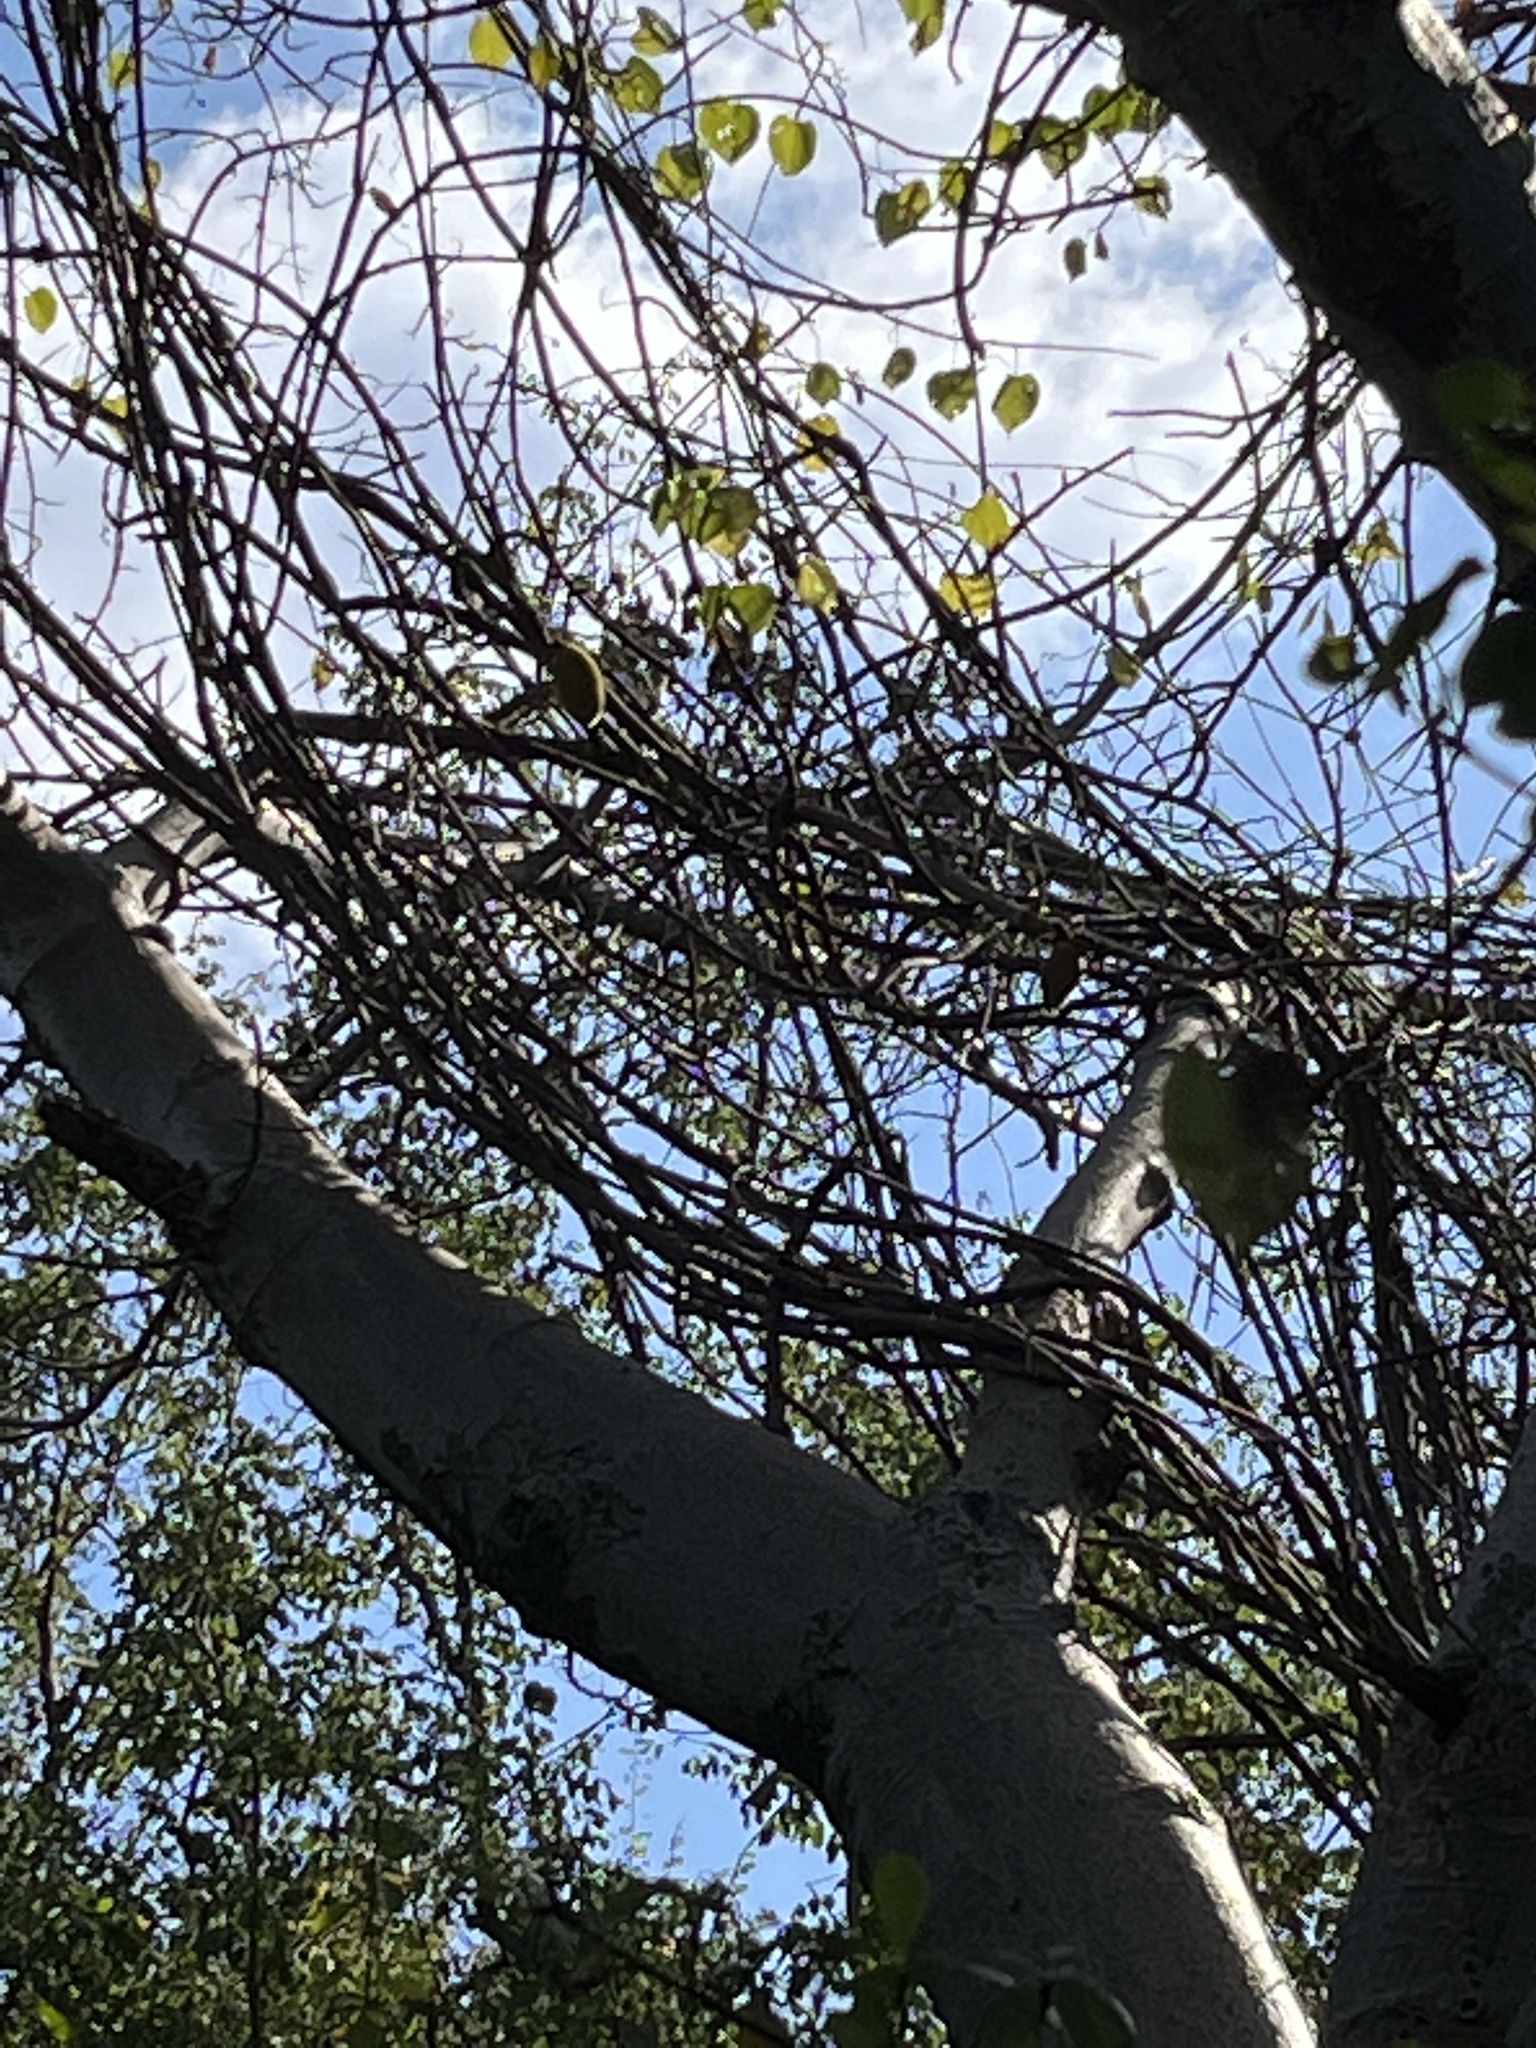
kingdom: Plantae
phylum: Tracheophyta
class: Magnoliopsida
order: Malvales
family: Malvaceae
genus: Adansonia
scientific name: Adansonia digitata
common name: Dead-rat-tree
